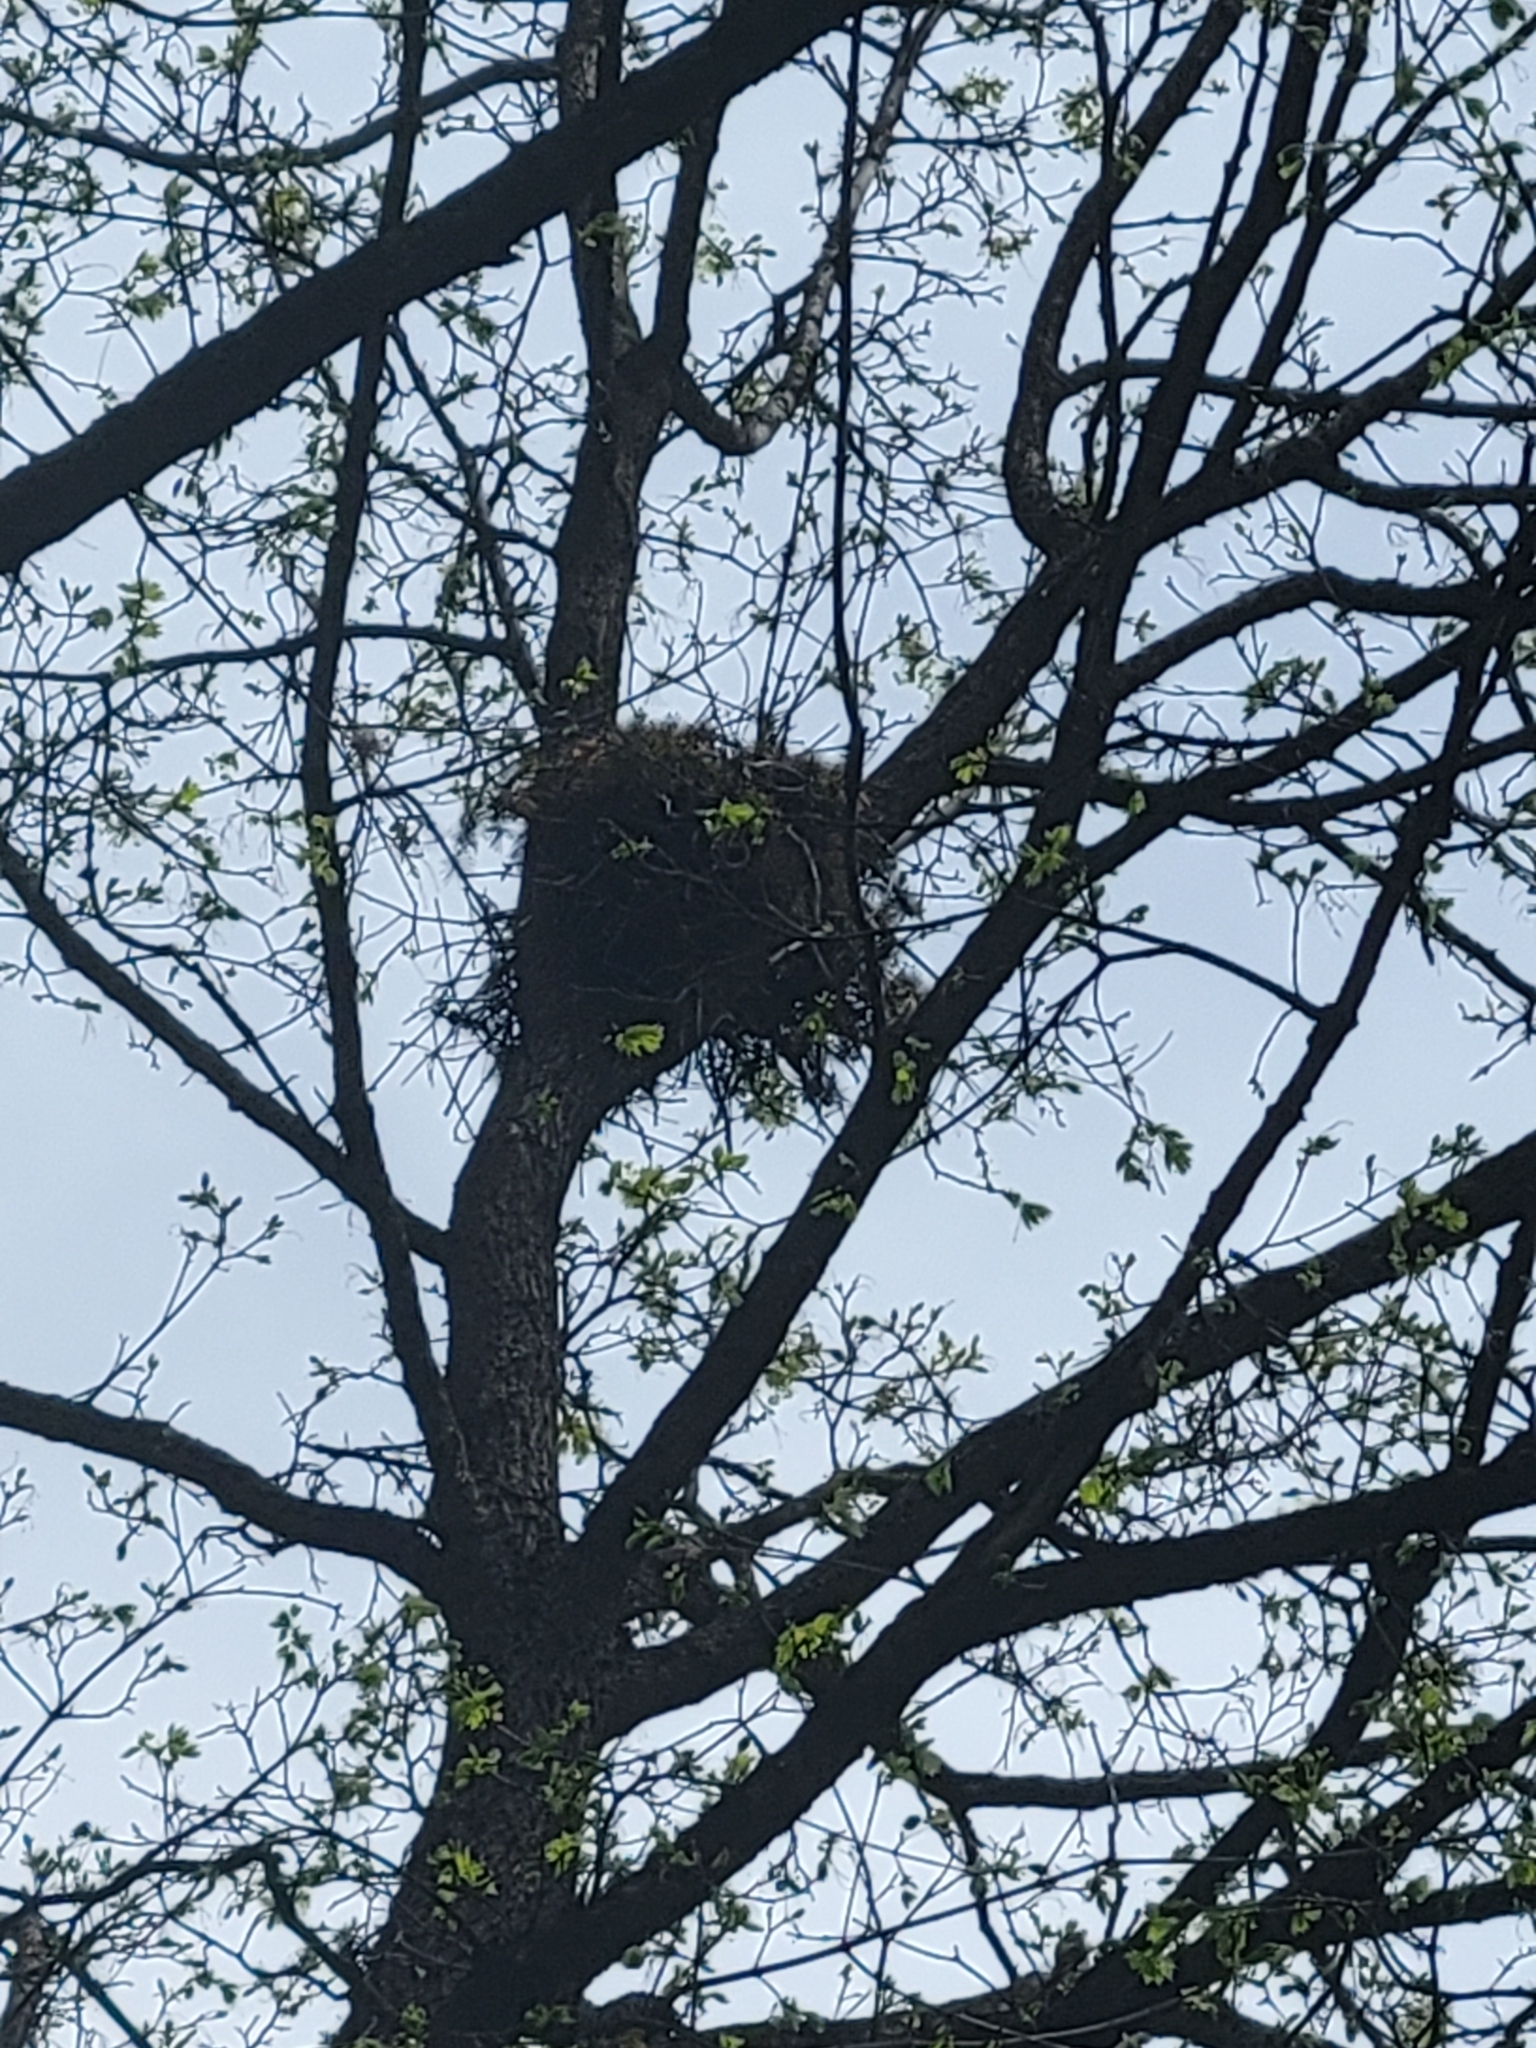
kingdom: Animalia
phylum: Chordata
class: Aves
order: Accipitriformes
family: Accipitridae
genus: Accipiter
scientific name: Accipiter cooperii
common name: Cooper's hawk
